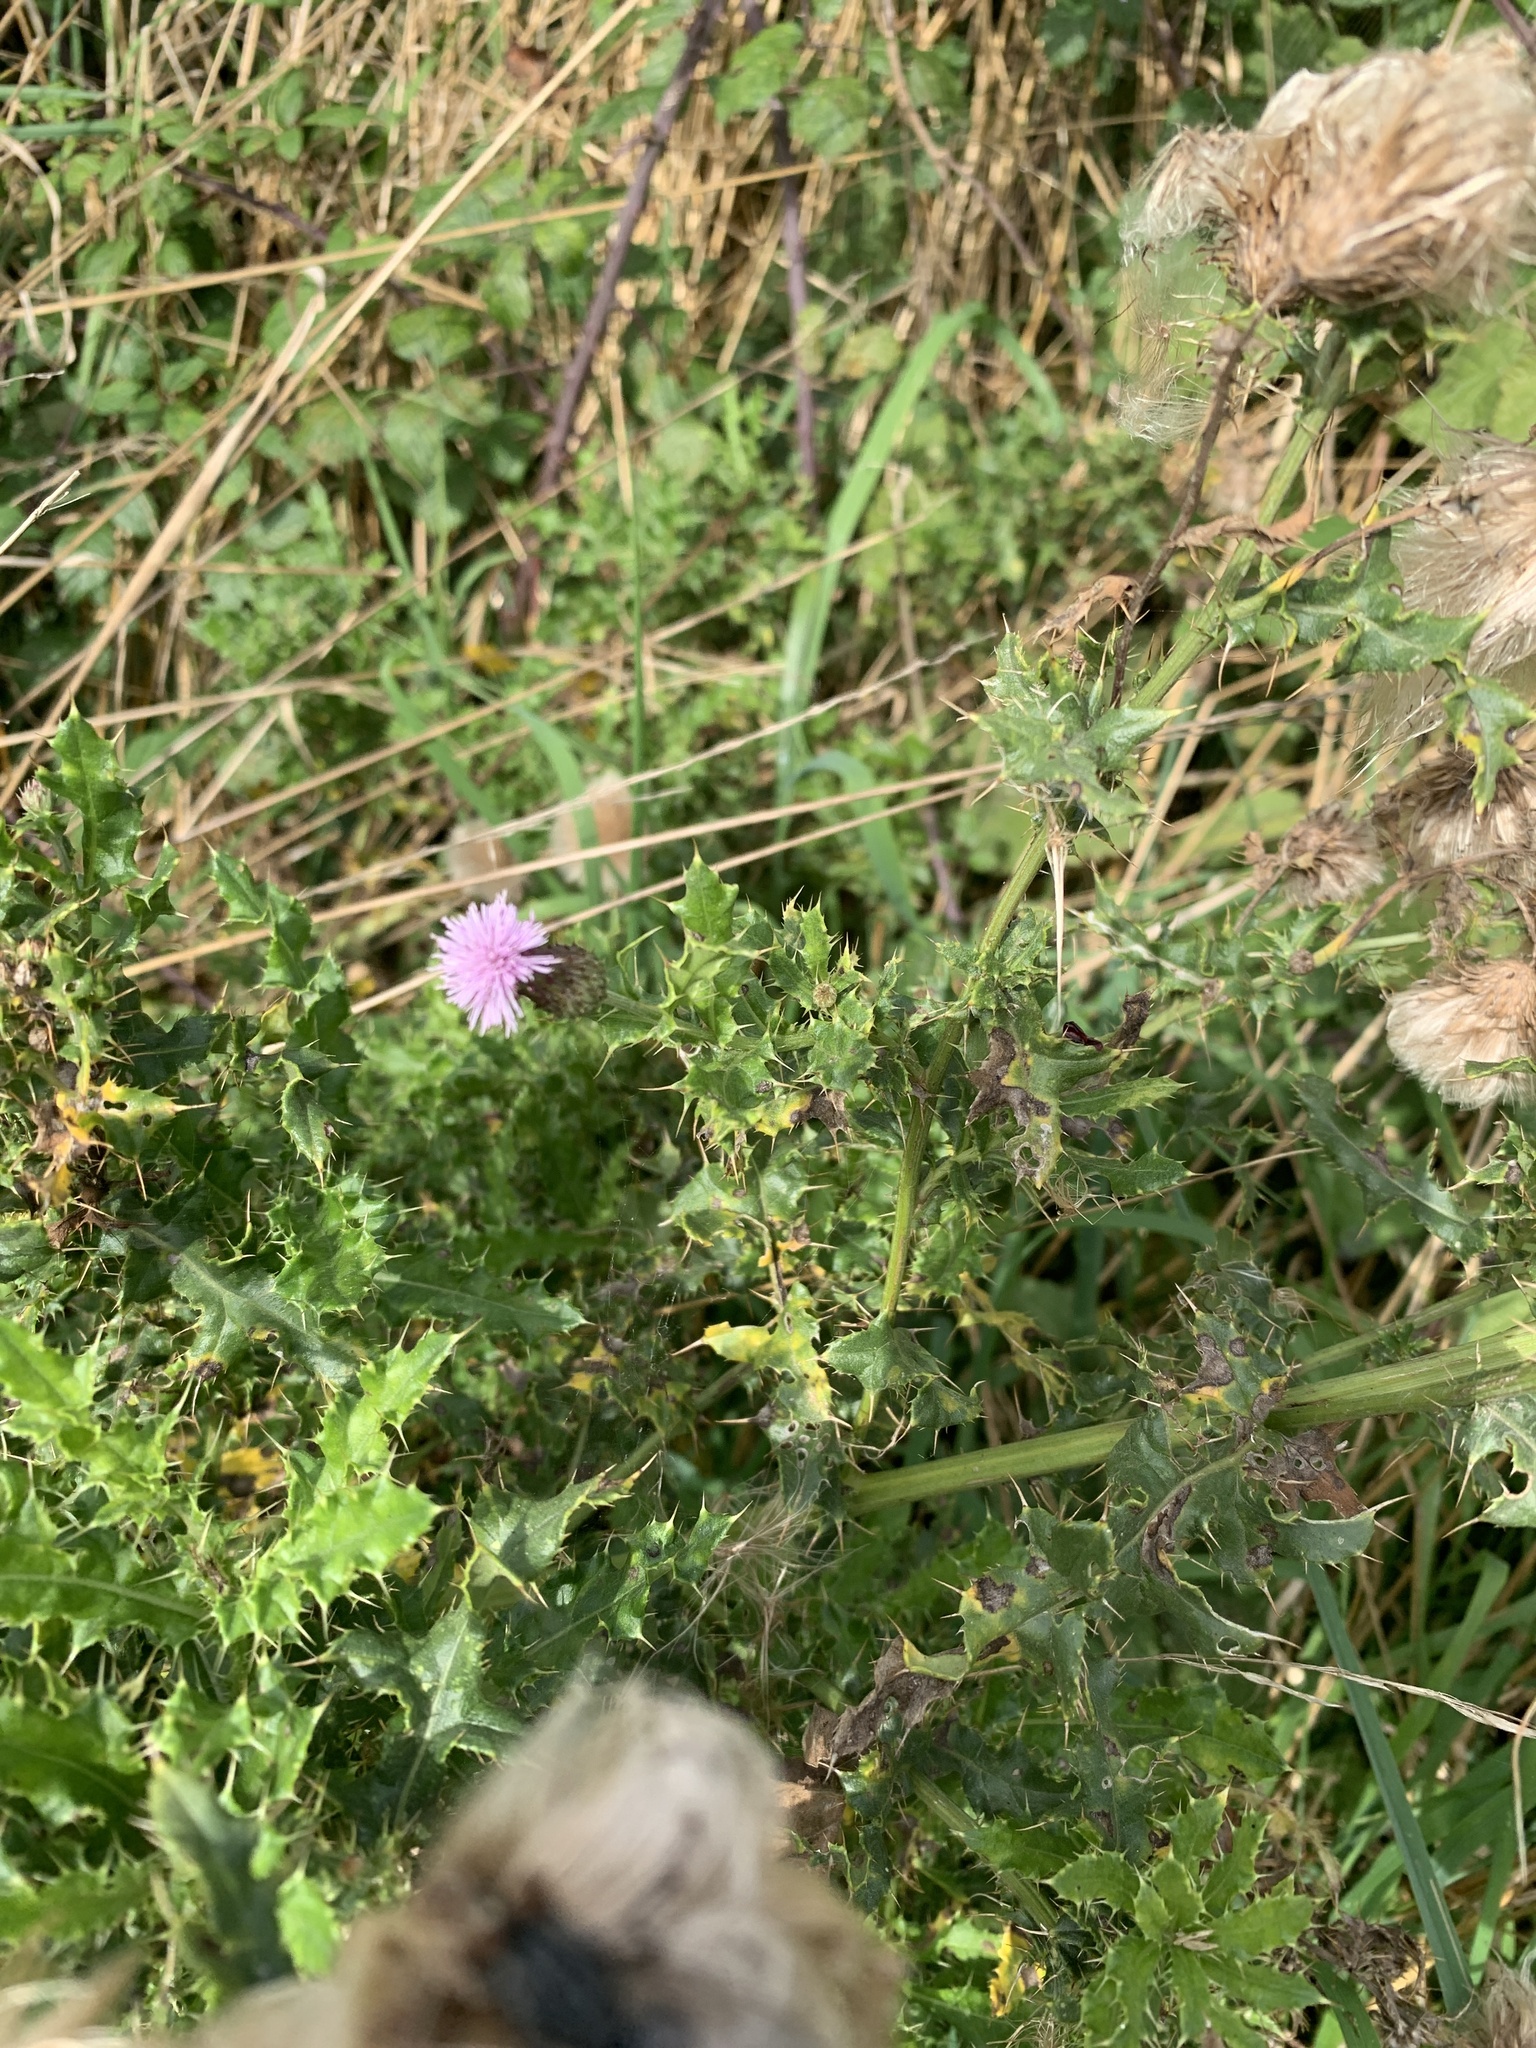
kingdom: Plantae
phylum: Tracheophyta
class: Magnoliopsida
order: Asterales
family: Asteraceae
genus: Cirsium
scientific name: Cirsium arvense
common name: Creeping thistle
